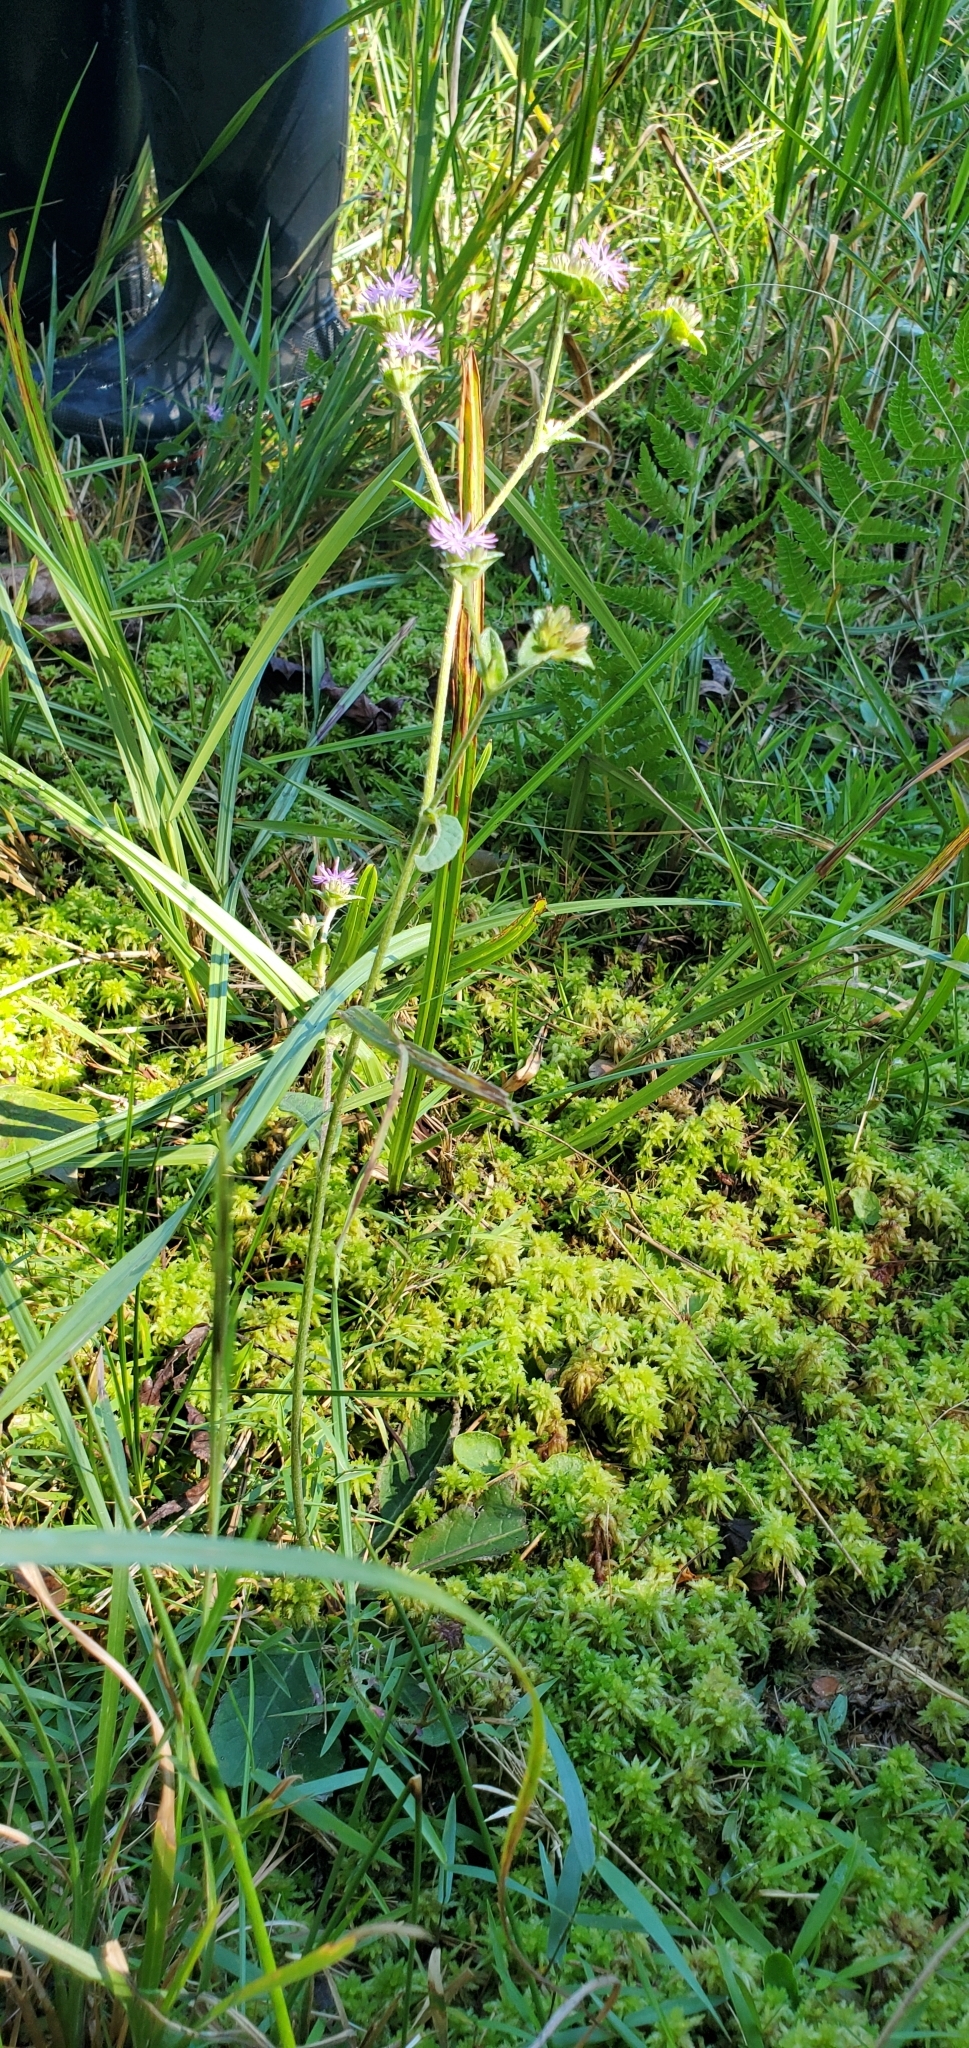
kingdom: Plantae
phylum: Tracheophyta
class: Magnoliopsida
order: Asterales
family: Asteraceae
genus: Elephantopus
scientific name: Elephantopus nudatus
